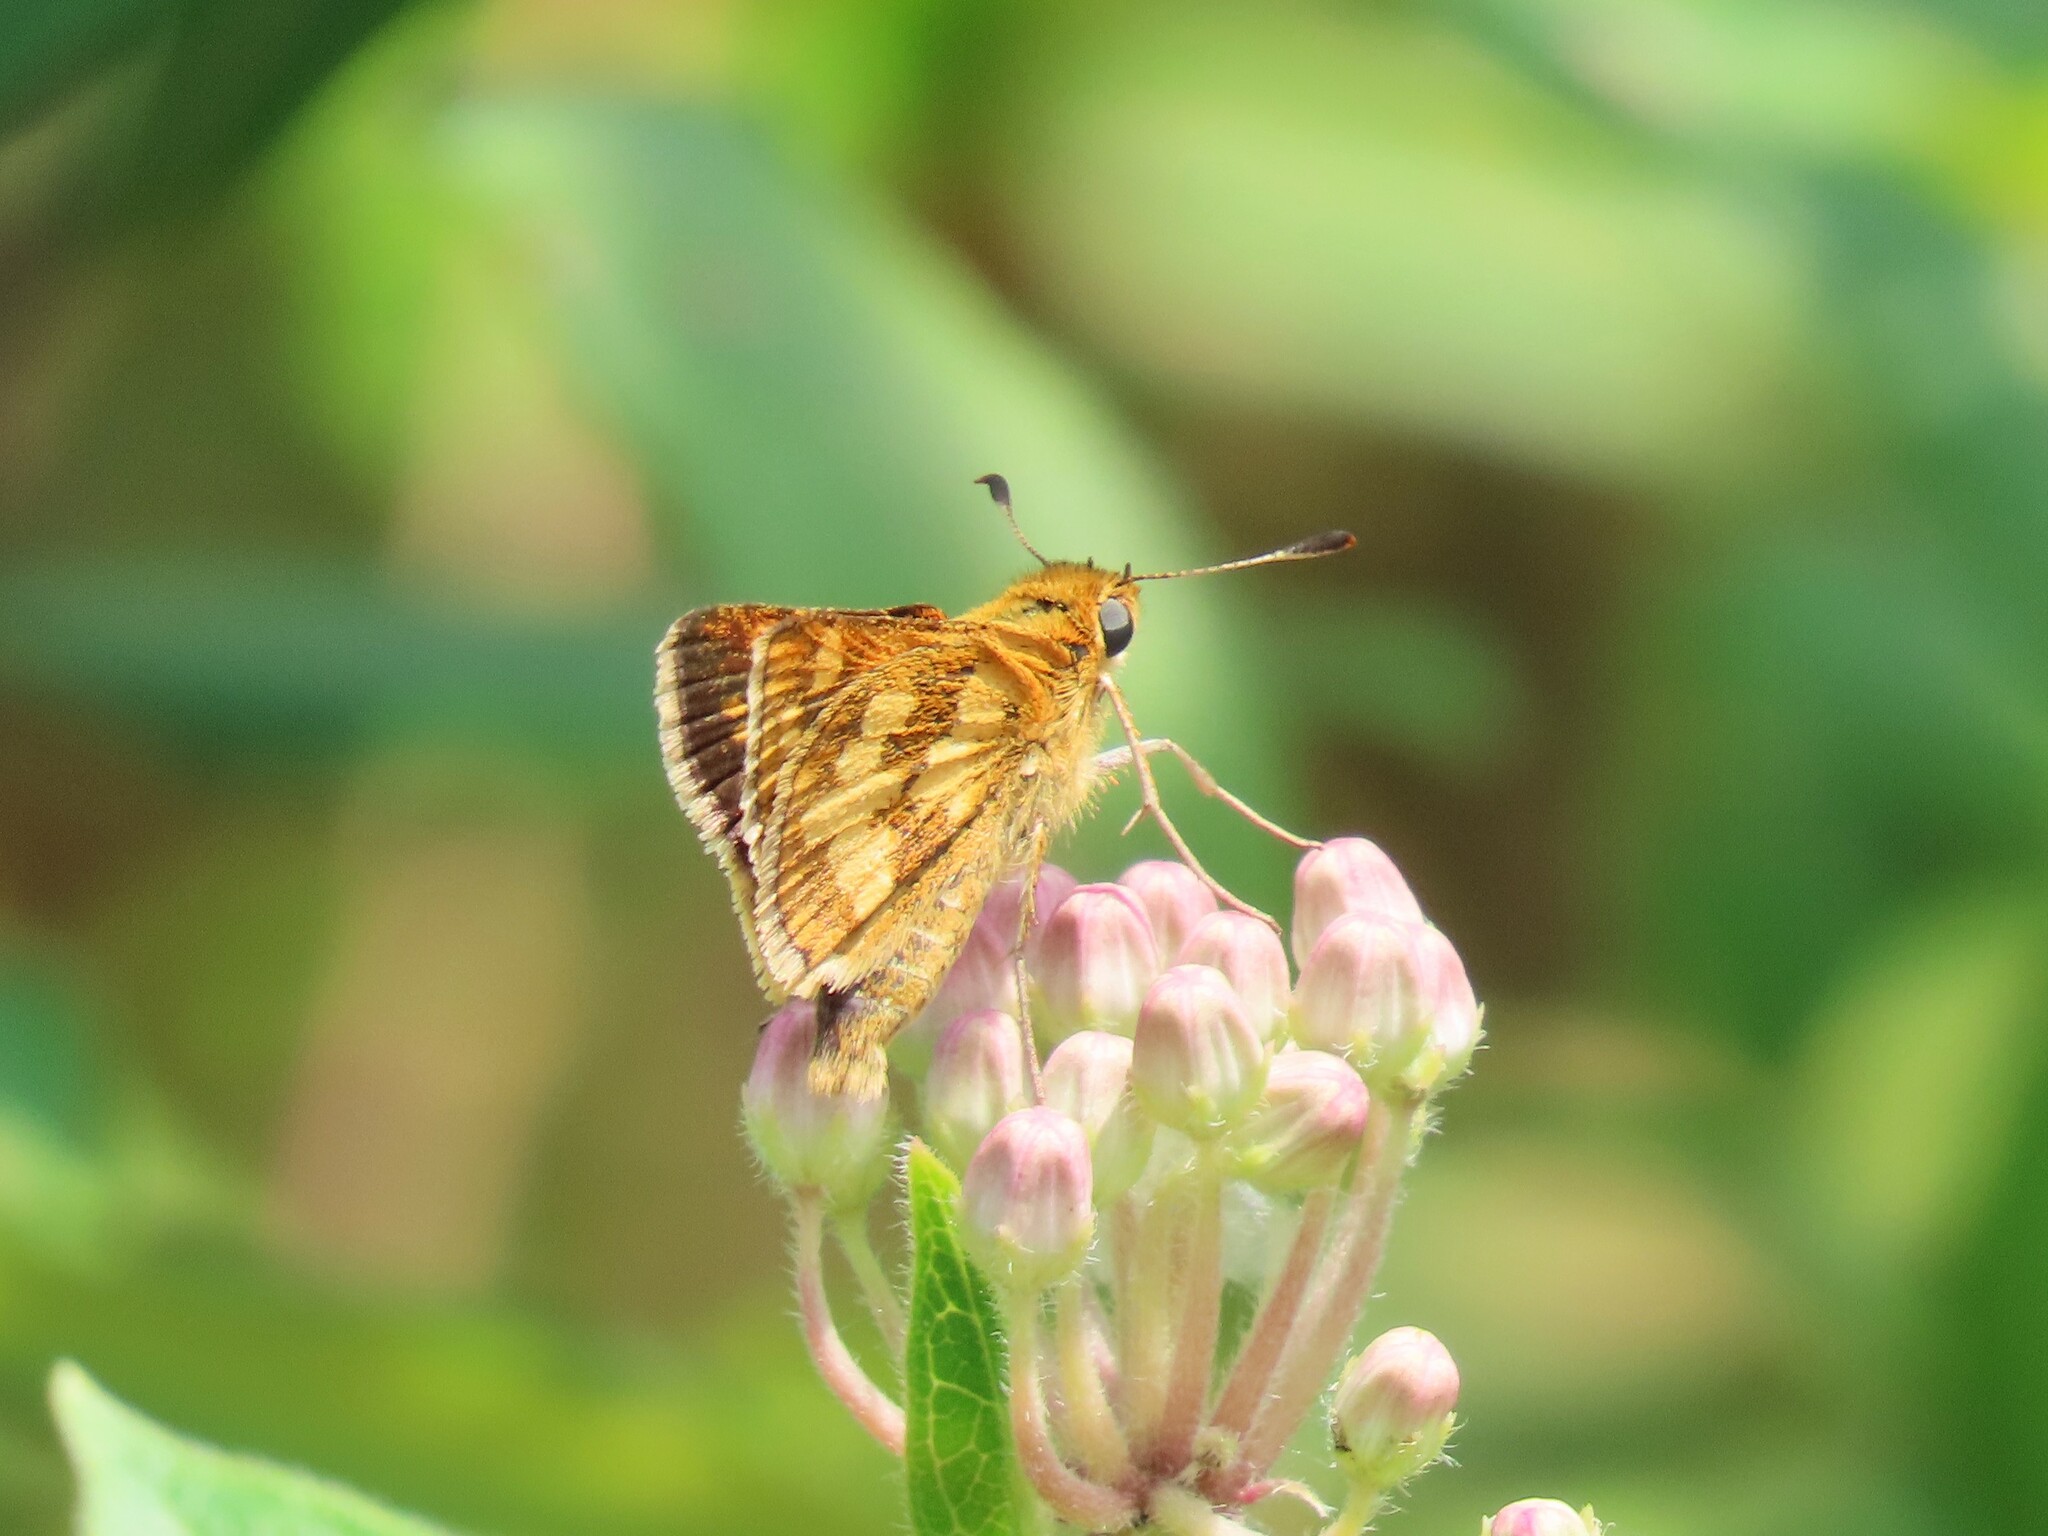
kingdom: Animalia
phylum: Arthropoda
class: Insecta
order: Lepidoptera
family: Hesperiidae
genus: Polites
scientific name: Polites coras
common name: Peck's skipper
